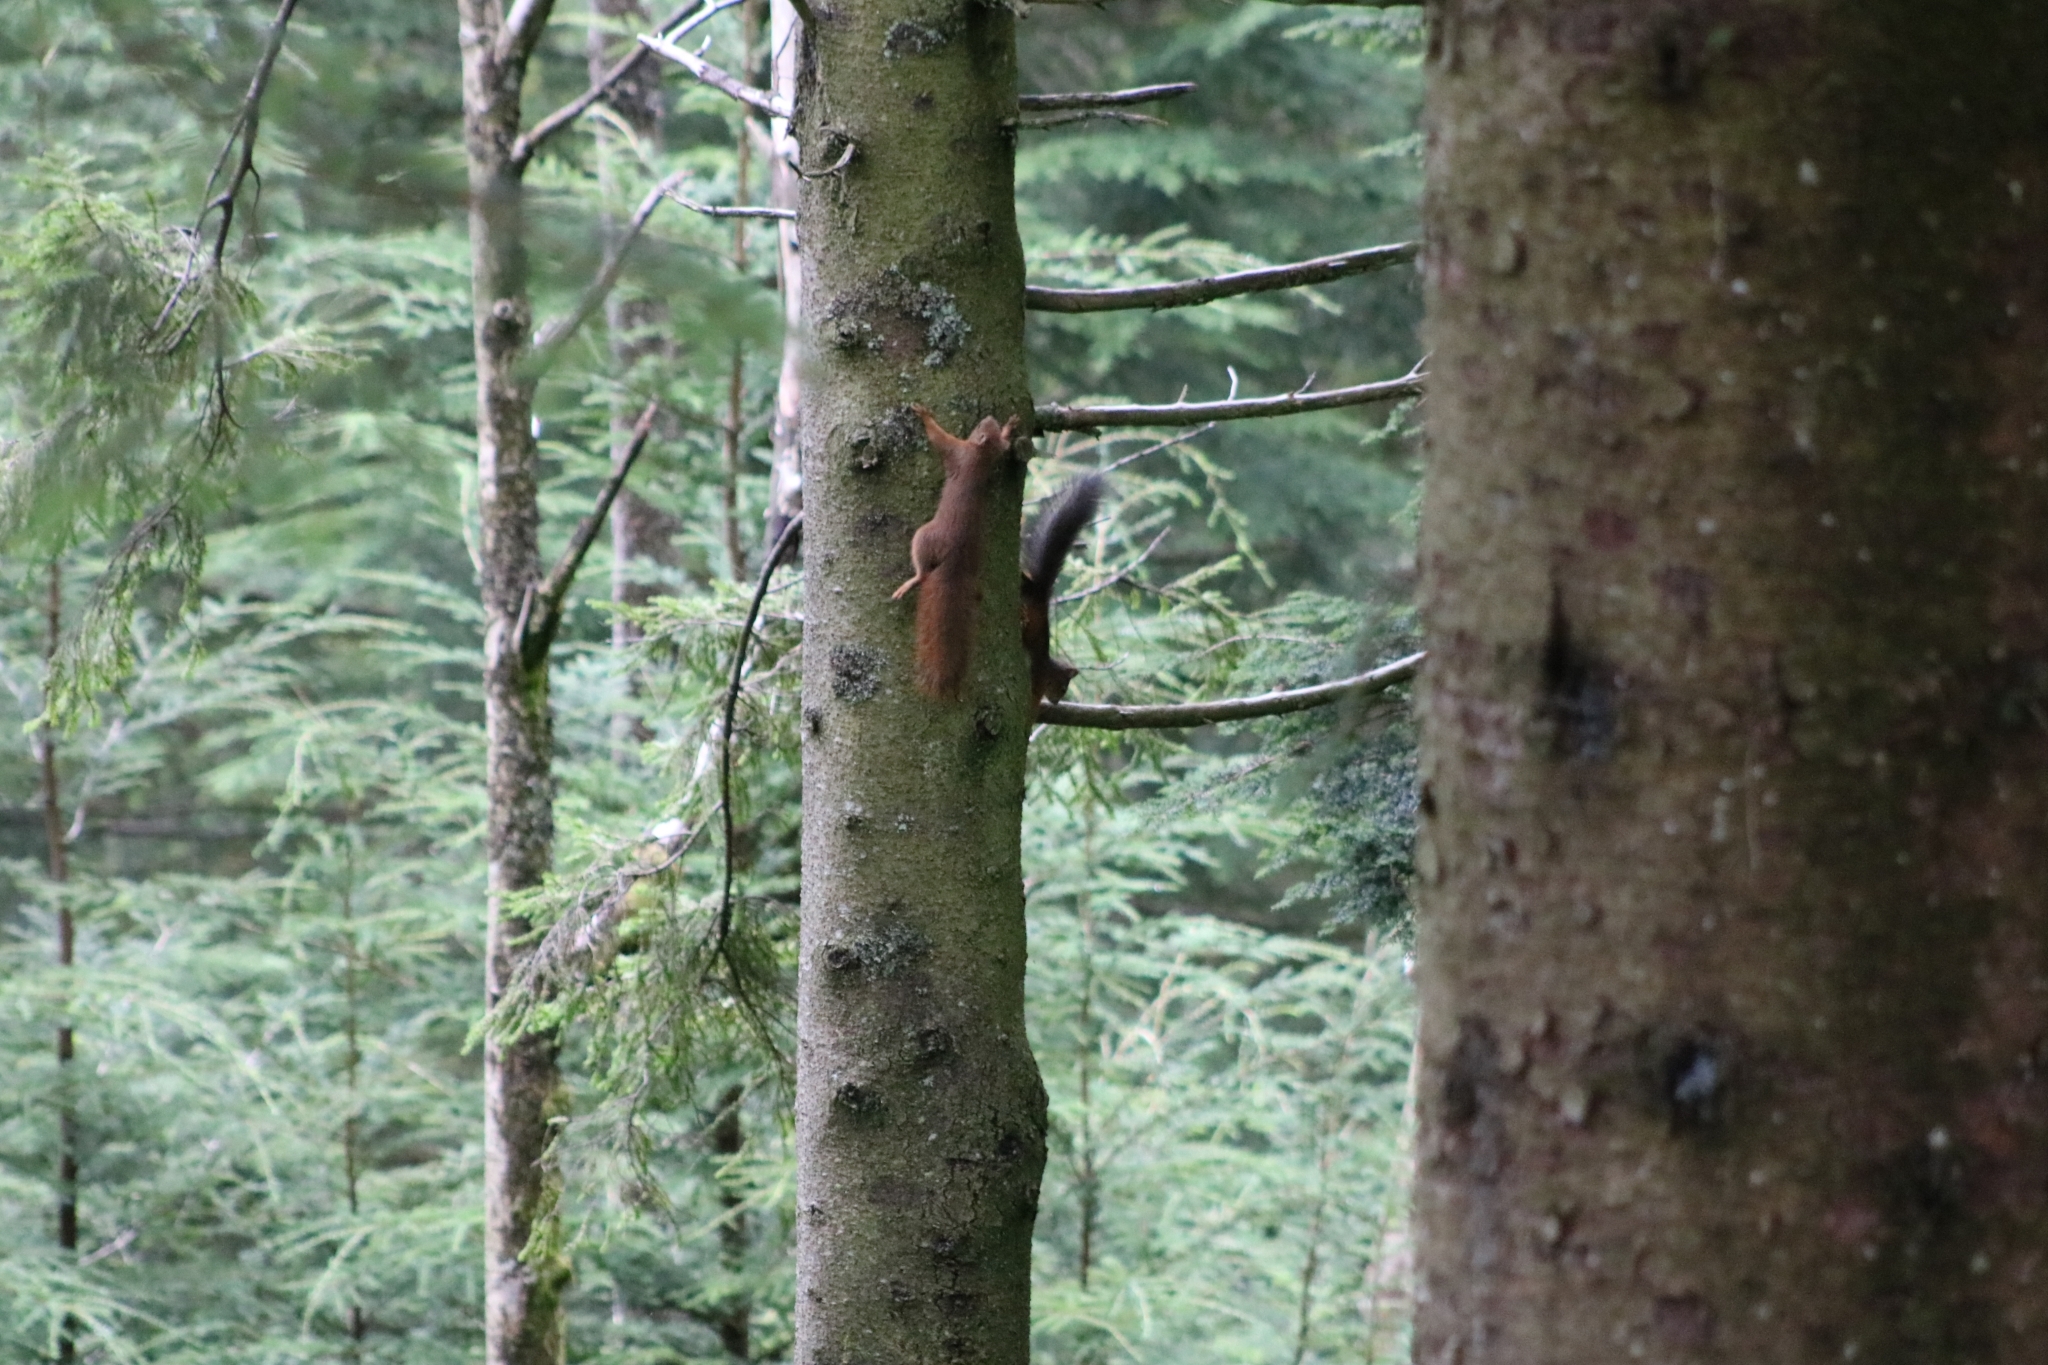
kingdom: Animalia
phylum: Chordata
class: Mammalia
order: Rodentia
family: Sciuridae
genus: Sciurus
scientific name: Sciurus vulgaris
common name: Eurasian red squirrel
